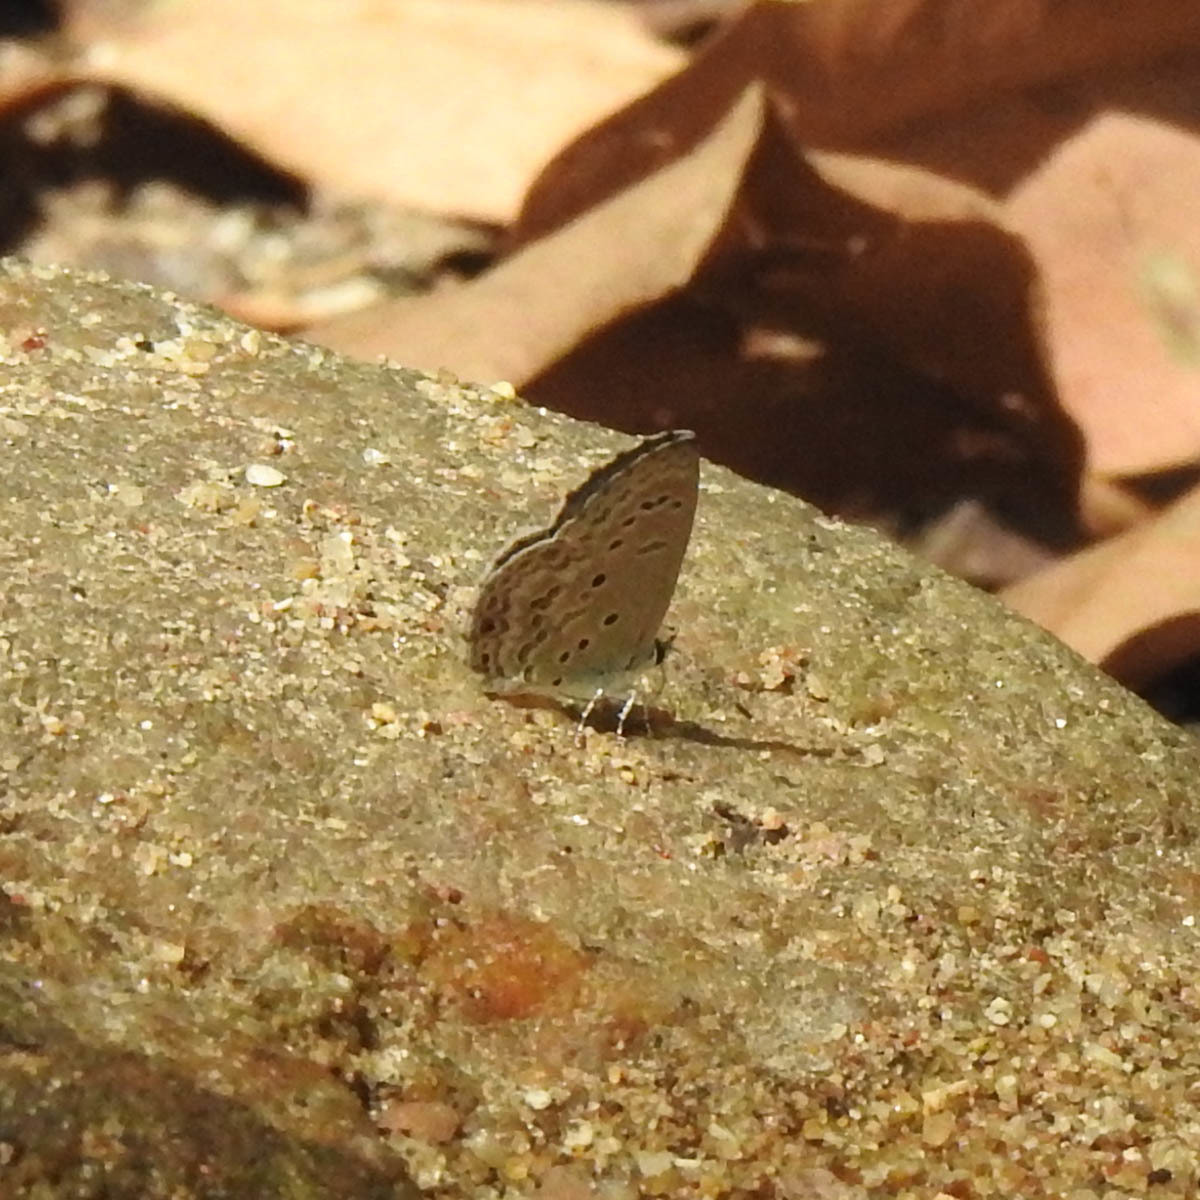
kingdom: Animalia
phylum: Arthropoda
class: Insecta
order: Lepidoptera
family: Lycaenidae
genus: Chilades
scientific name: Chilades laius
